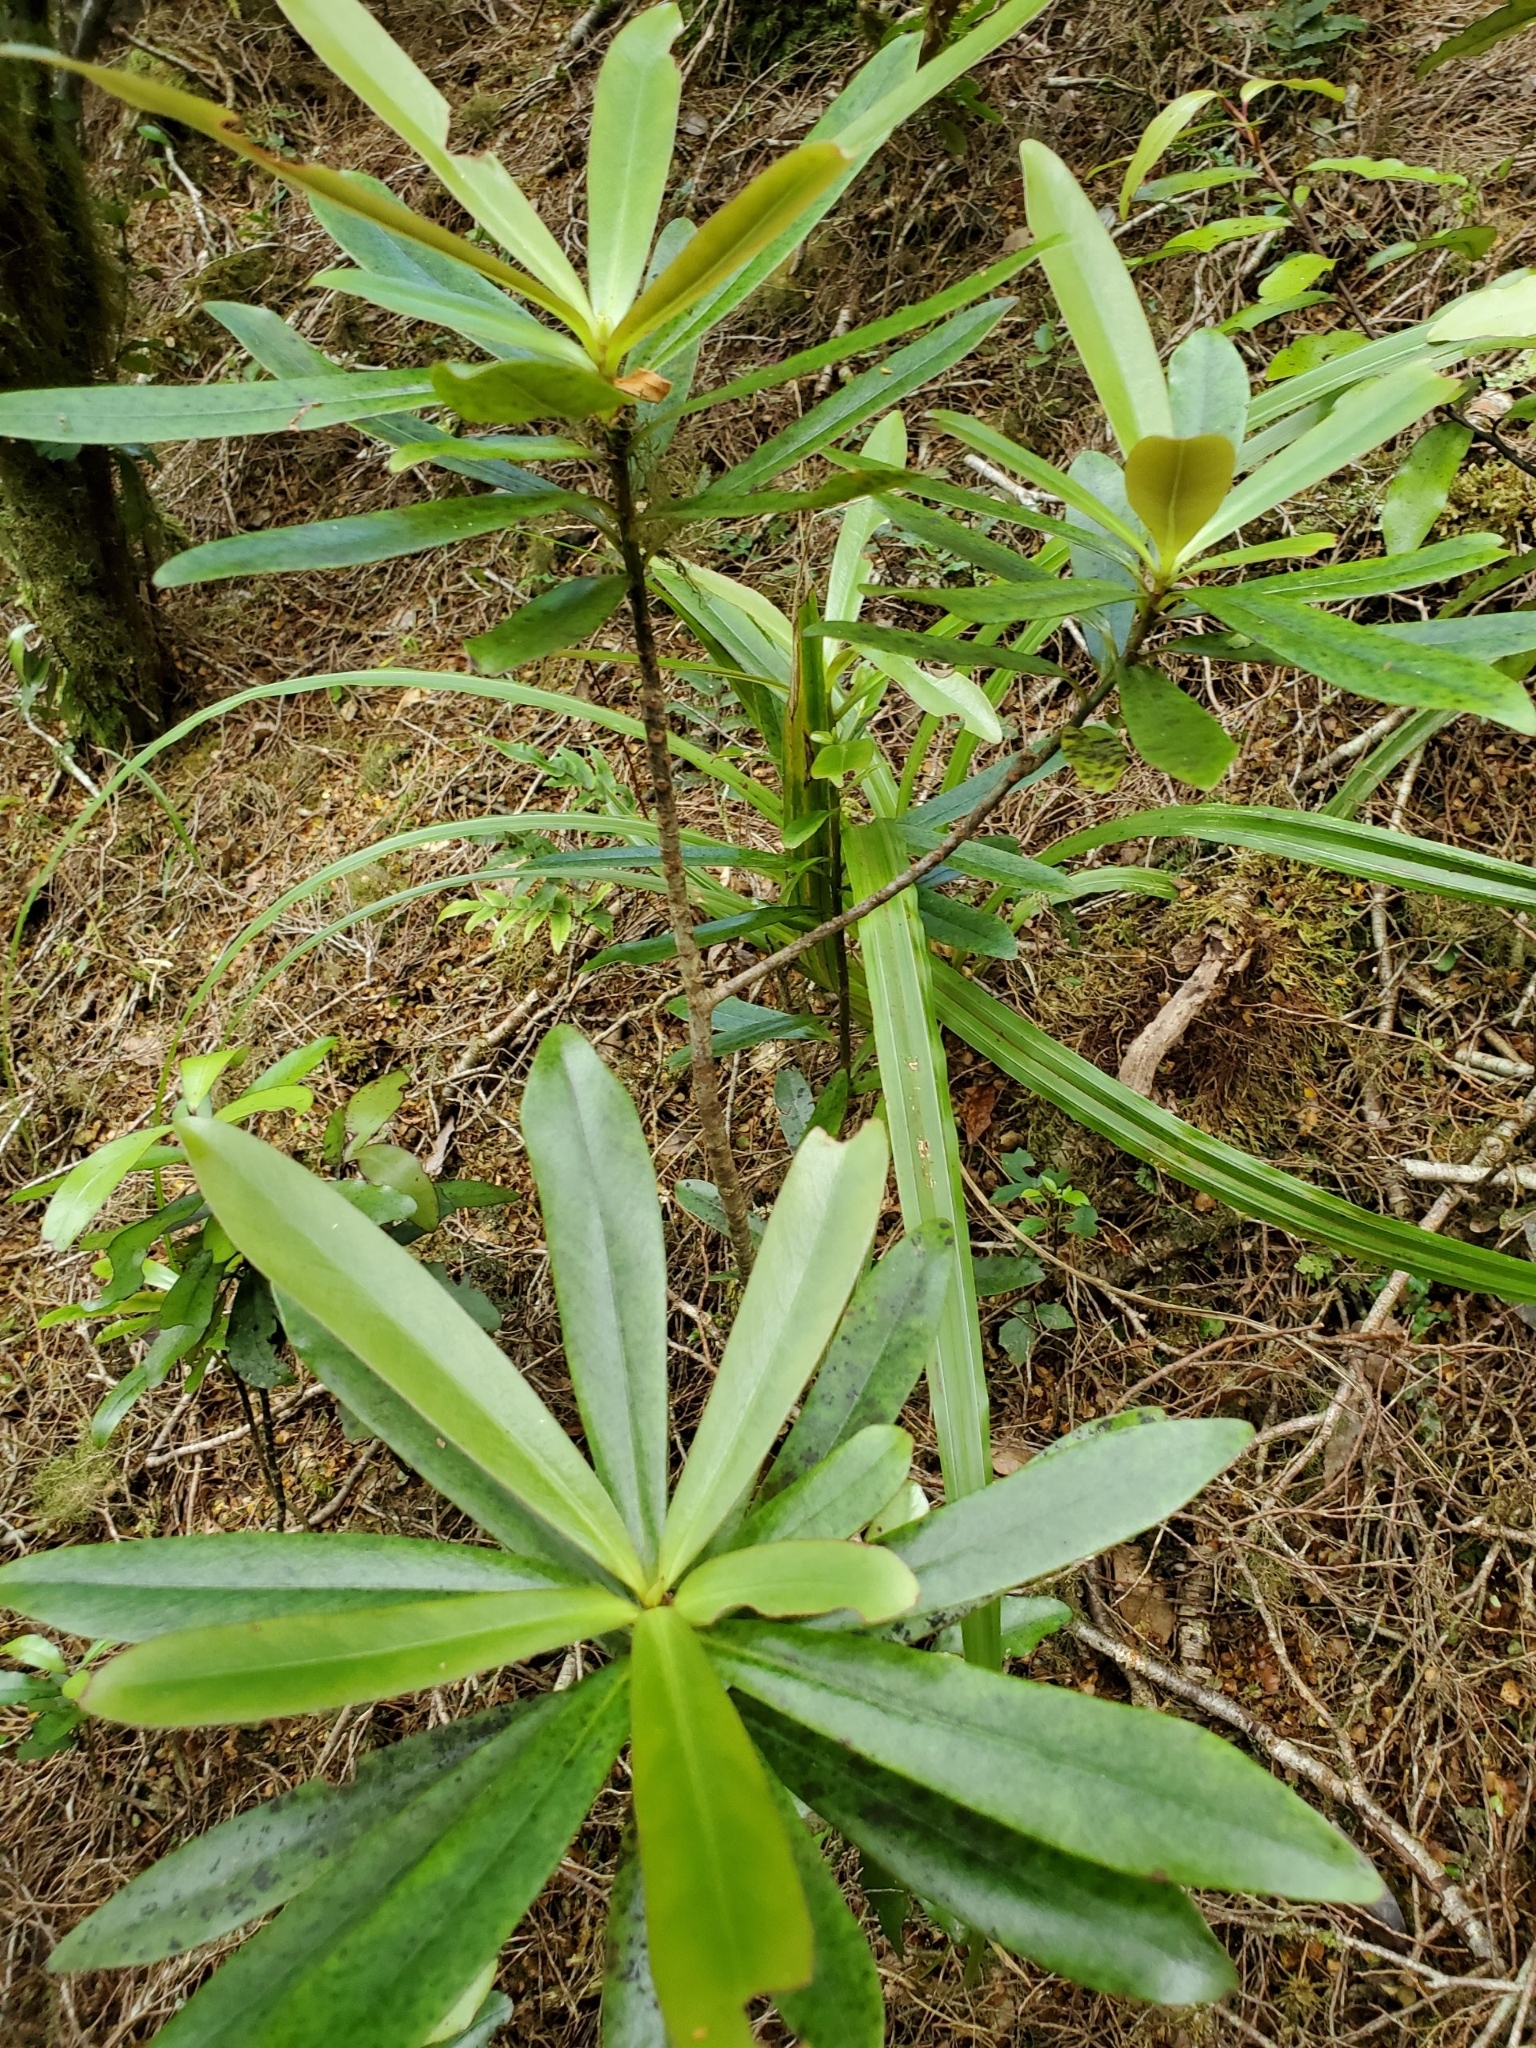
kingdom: Plantae
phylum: Tracheophyta
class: Magnoliopsida
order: Ericales
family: Primulaceae
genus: Myrsine
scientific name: Myrsine salicina
